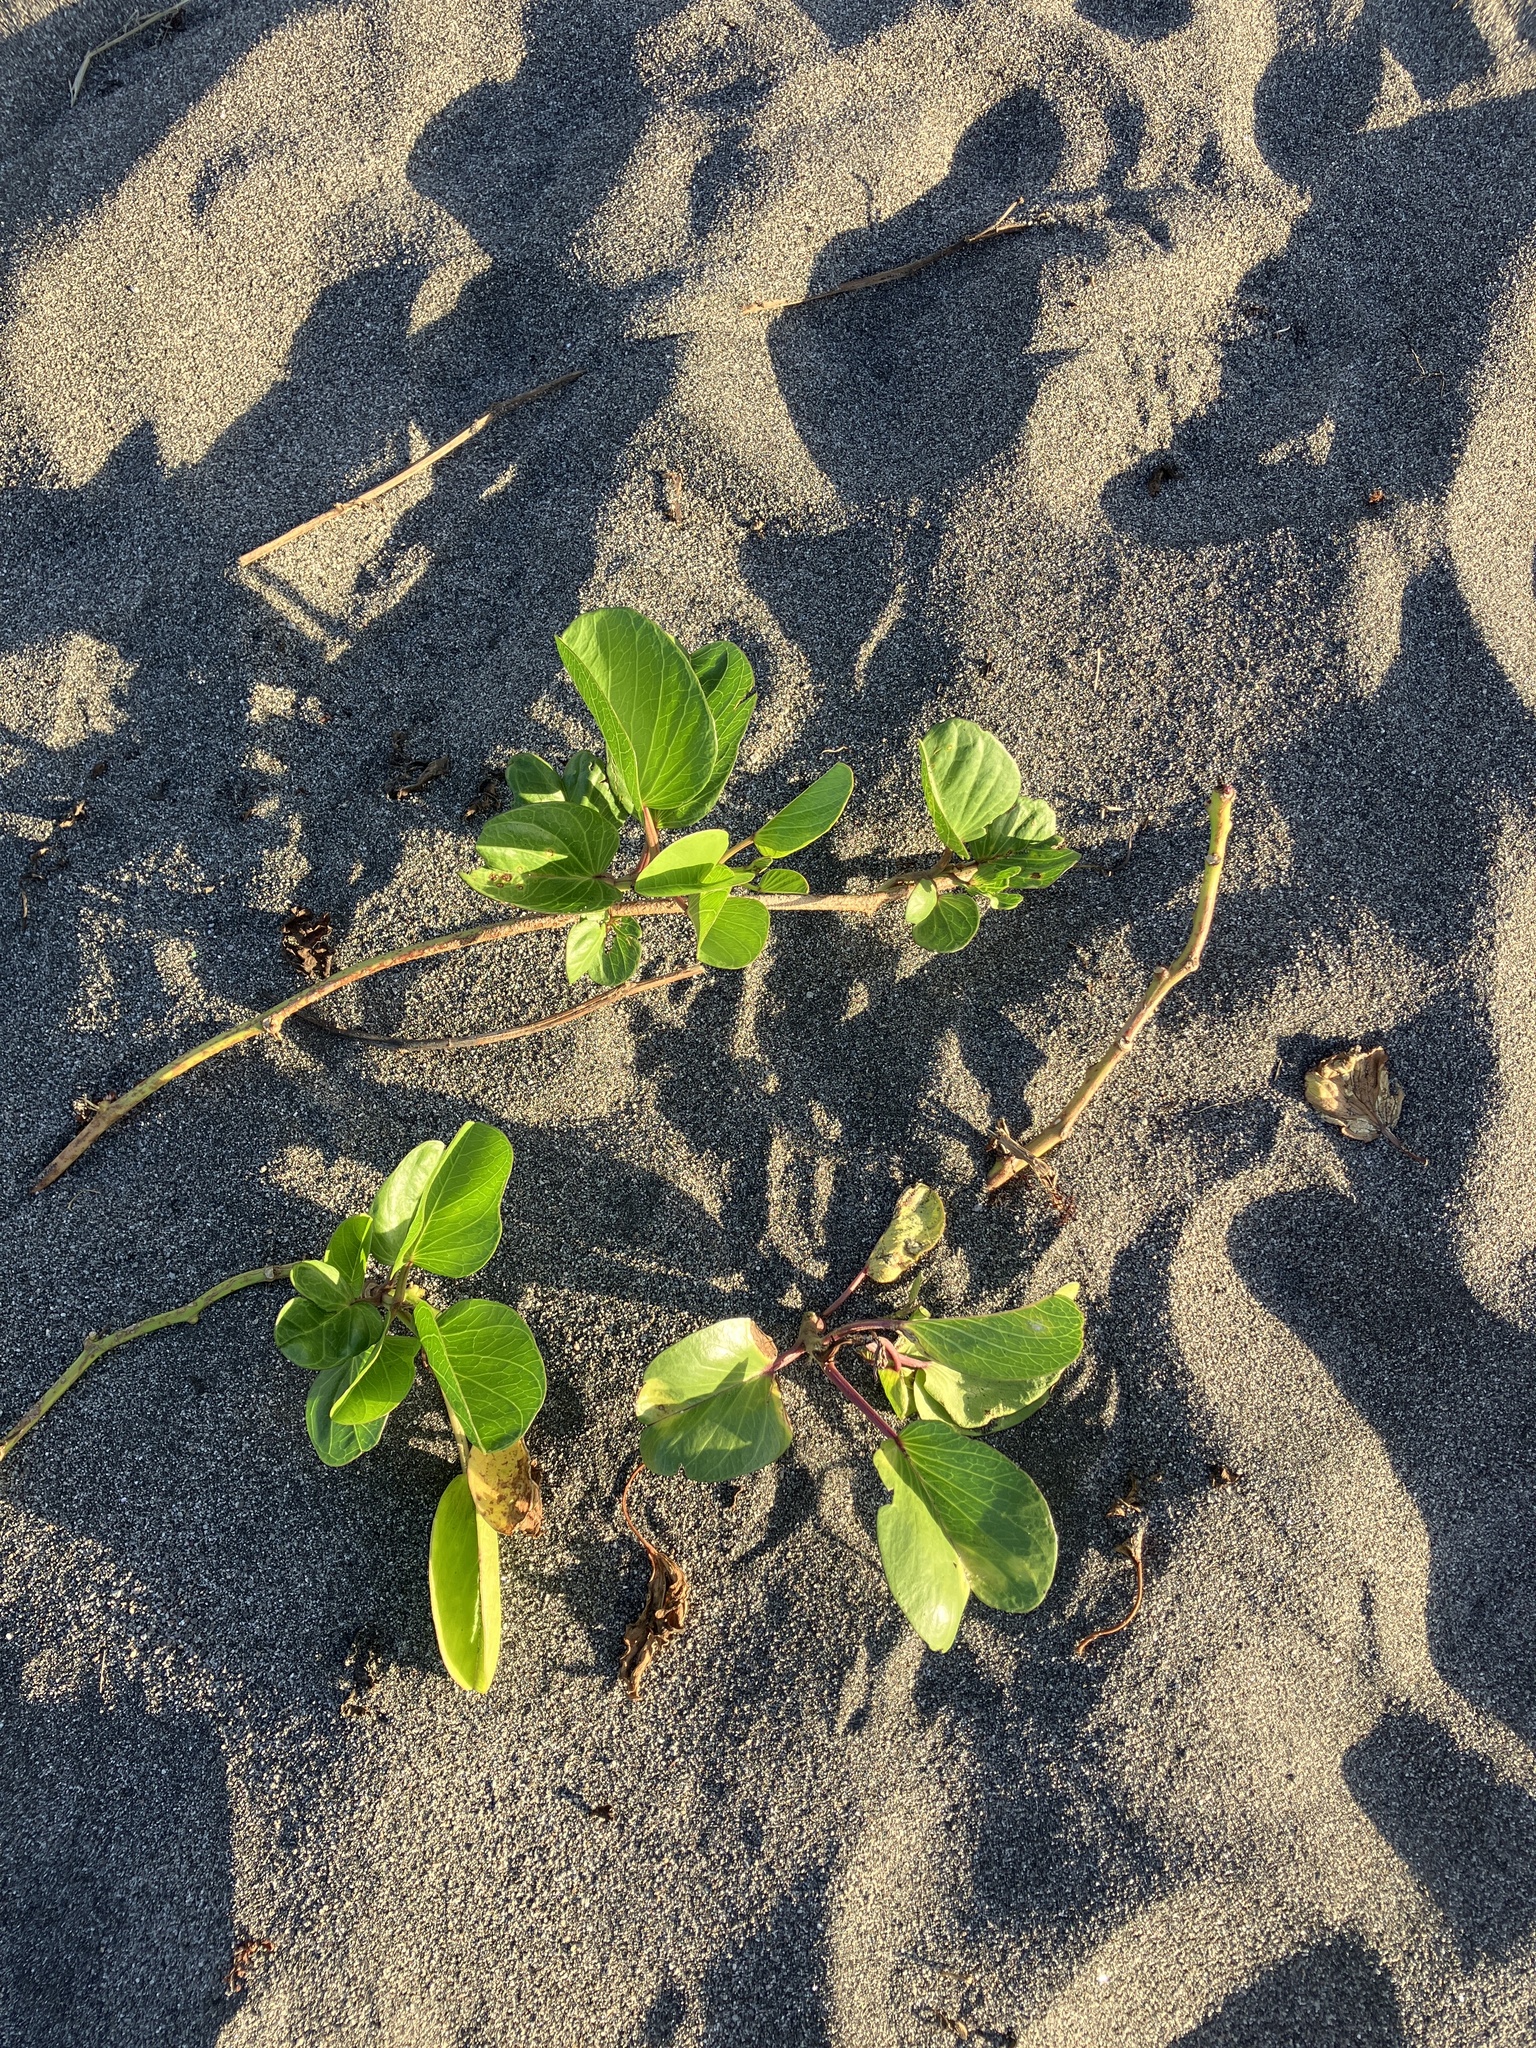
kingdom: Plantae
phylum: Tracheophyta
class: Magnoliopsida
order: Solanales
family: Convolvulaceae
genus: Ipomoea
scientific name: Ipomoea pes-caprae
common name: Beach morning glory
